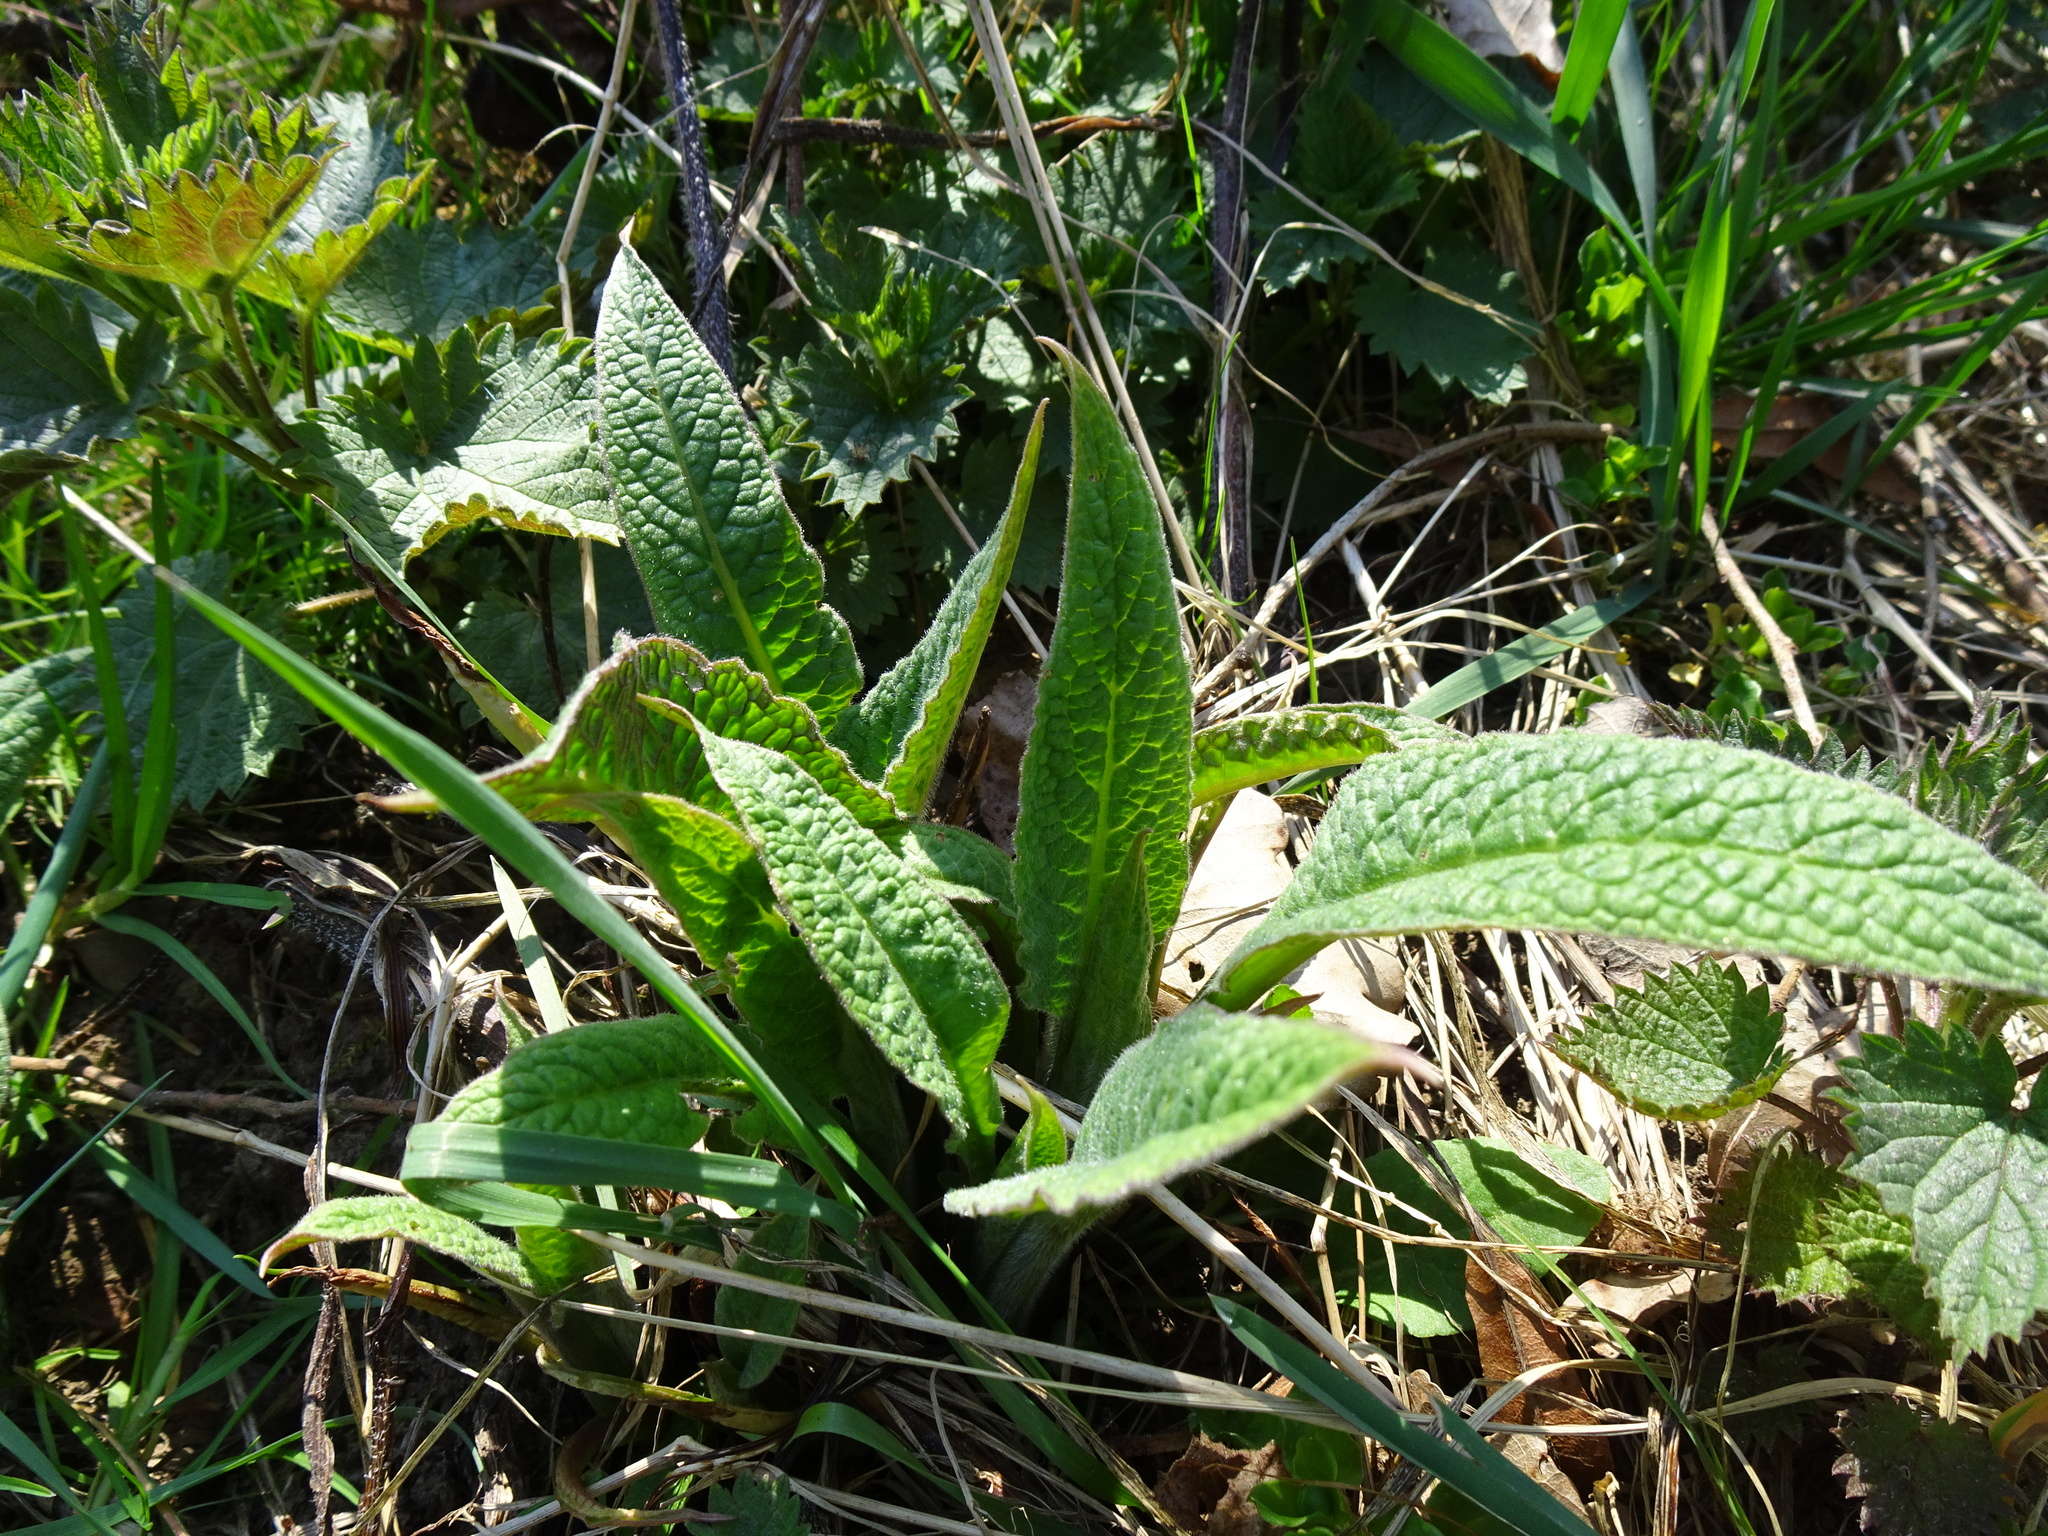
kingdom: Plantae
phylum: Tracheophyta
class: Magnoliopsida
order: Lamiales
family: Plantaginaceae
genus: Digitalis
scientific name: Digitalis purpurea
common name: Foxglove
